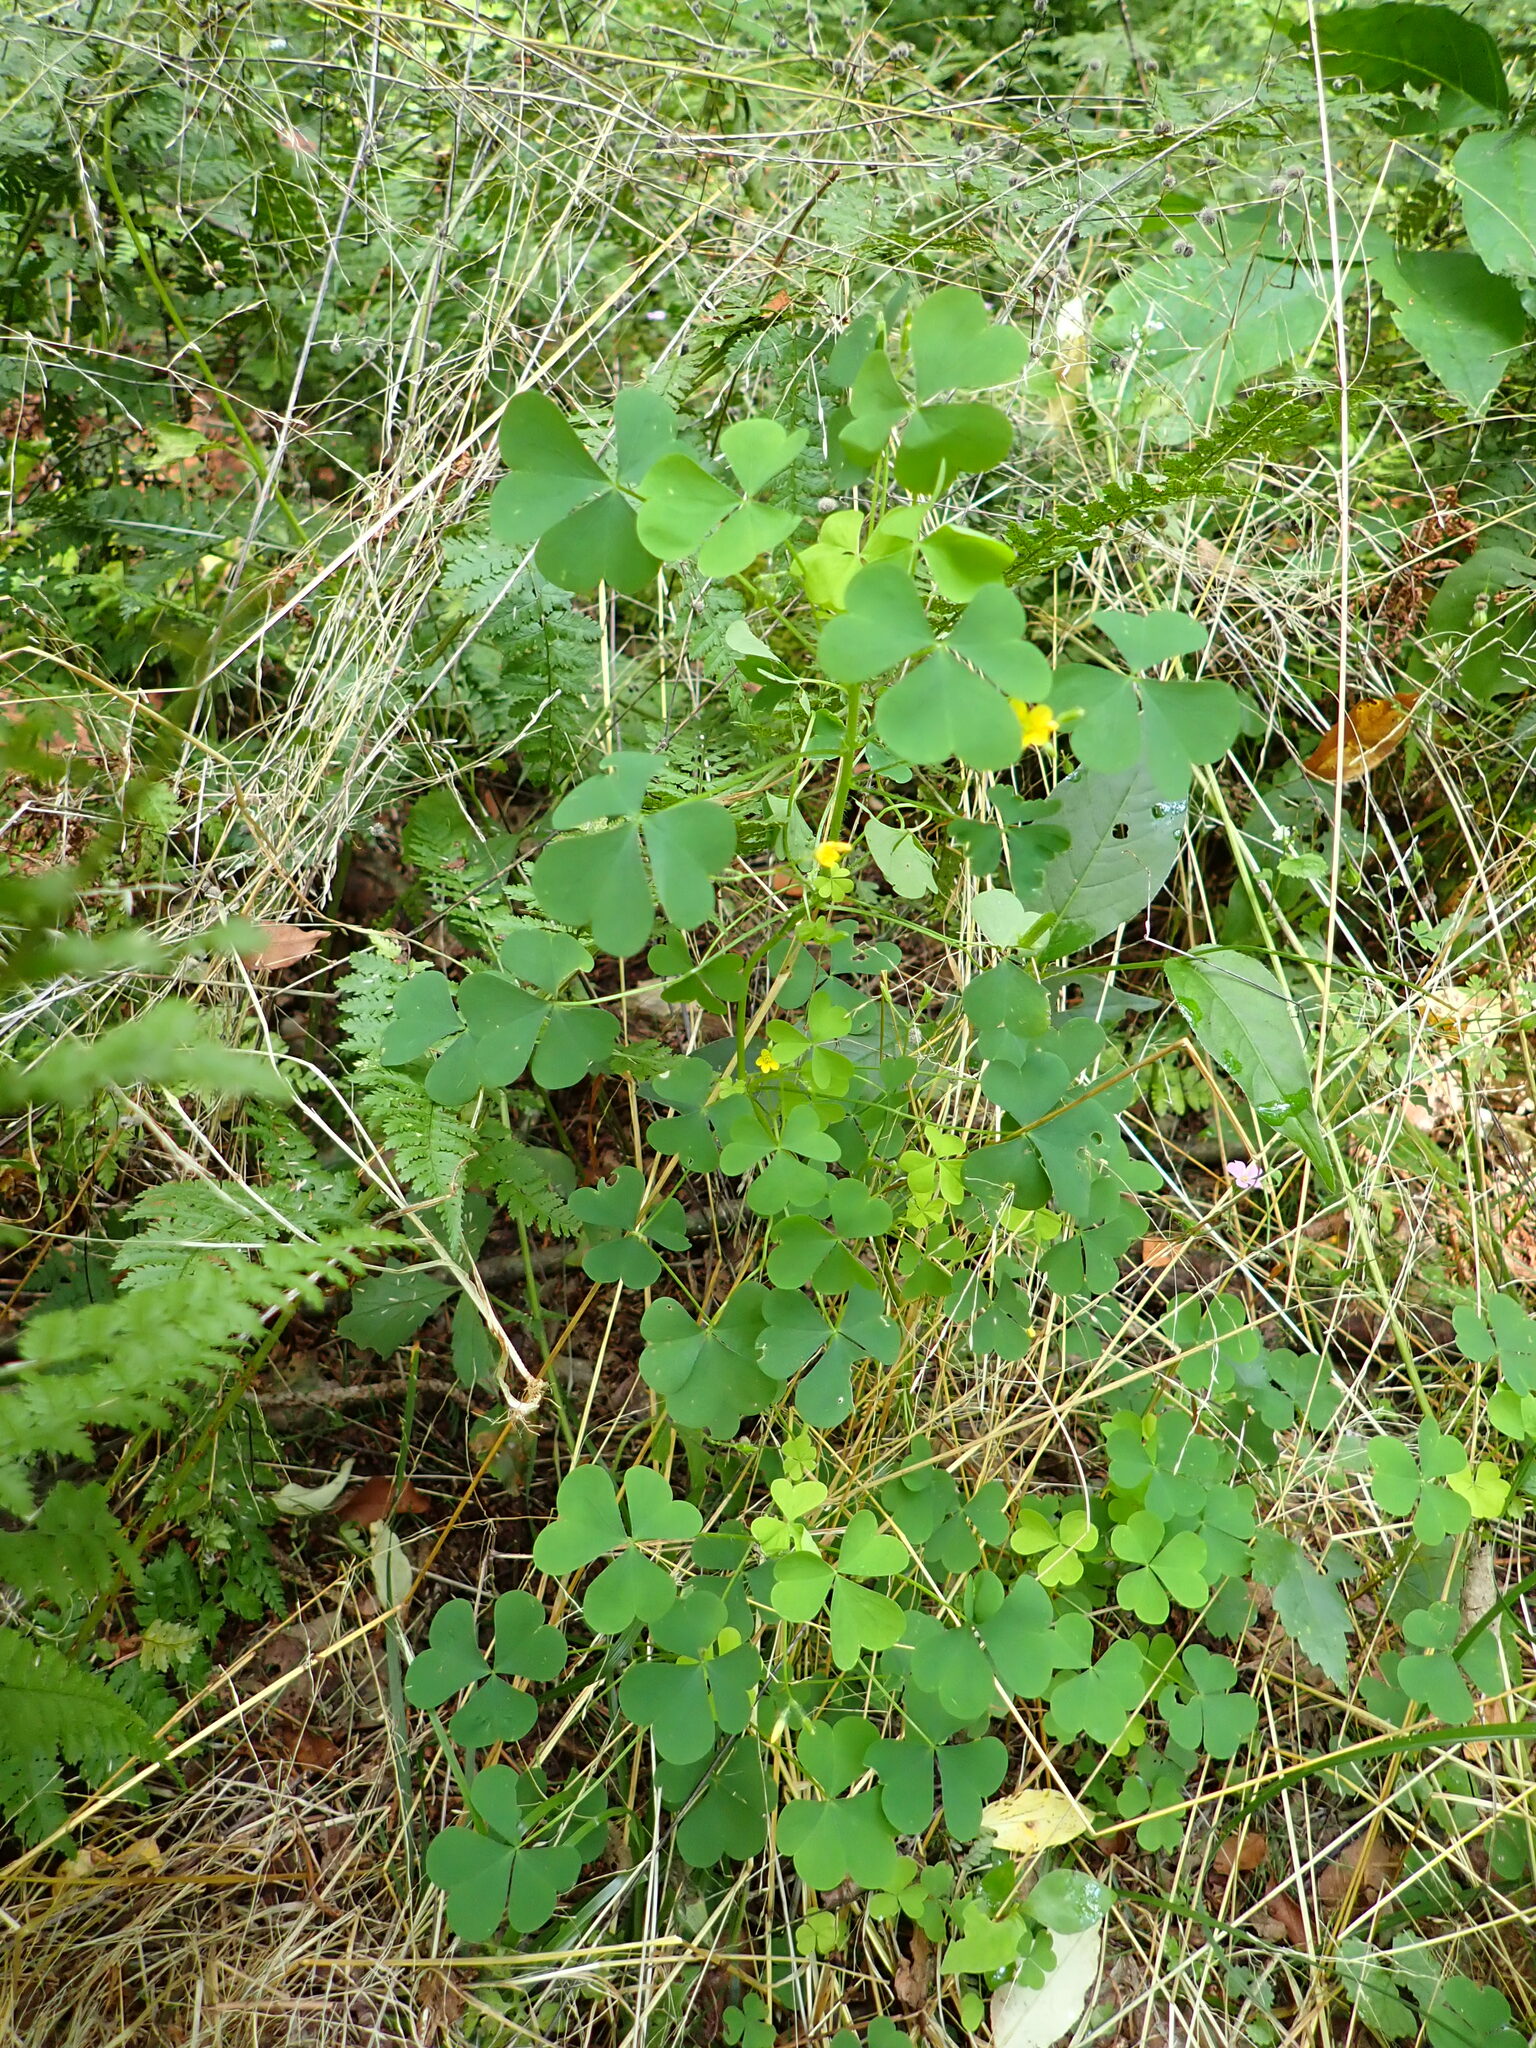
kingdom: Plantae
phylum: Tracheophyta
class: Magnoliopsida
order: Oxalidales
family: Oxalidaceae
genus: Oxalis
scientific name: Oxalis stricta
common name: Upright yellow-sorrel
